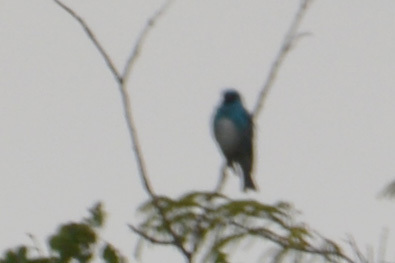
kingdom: Animalia
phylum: Chordata
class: Aves
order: Passeriformes
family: Thraupidae
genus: Tersina
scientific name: Tersina viridis
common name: Swallow tanager
